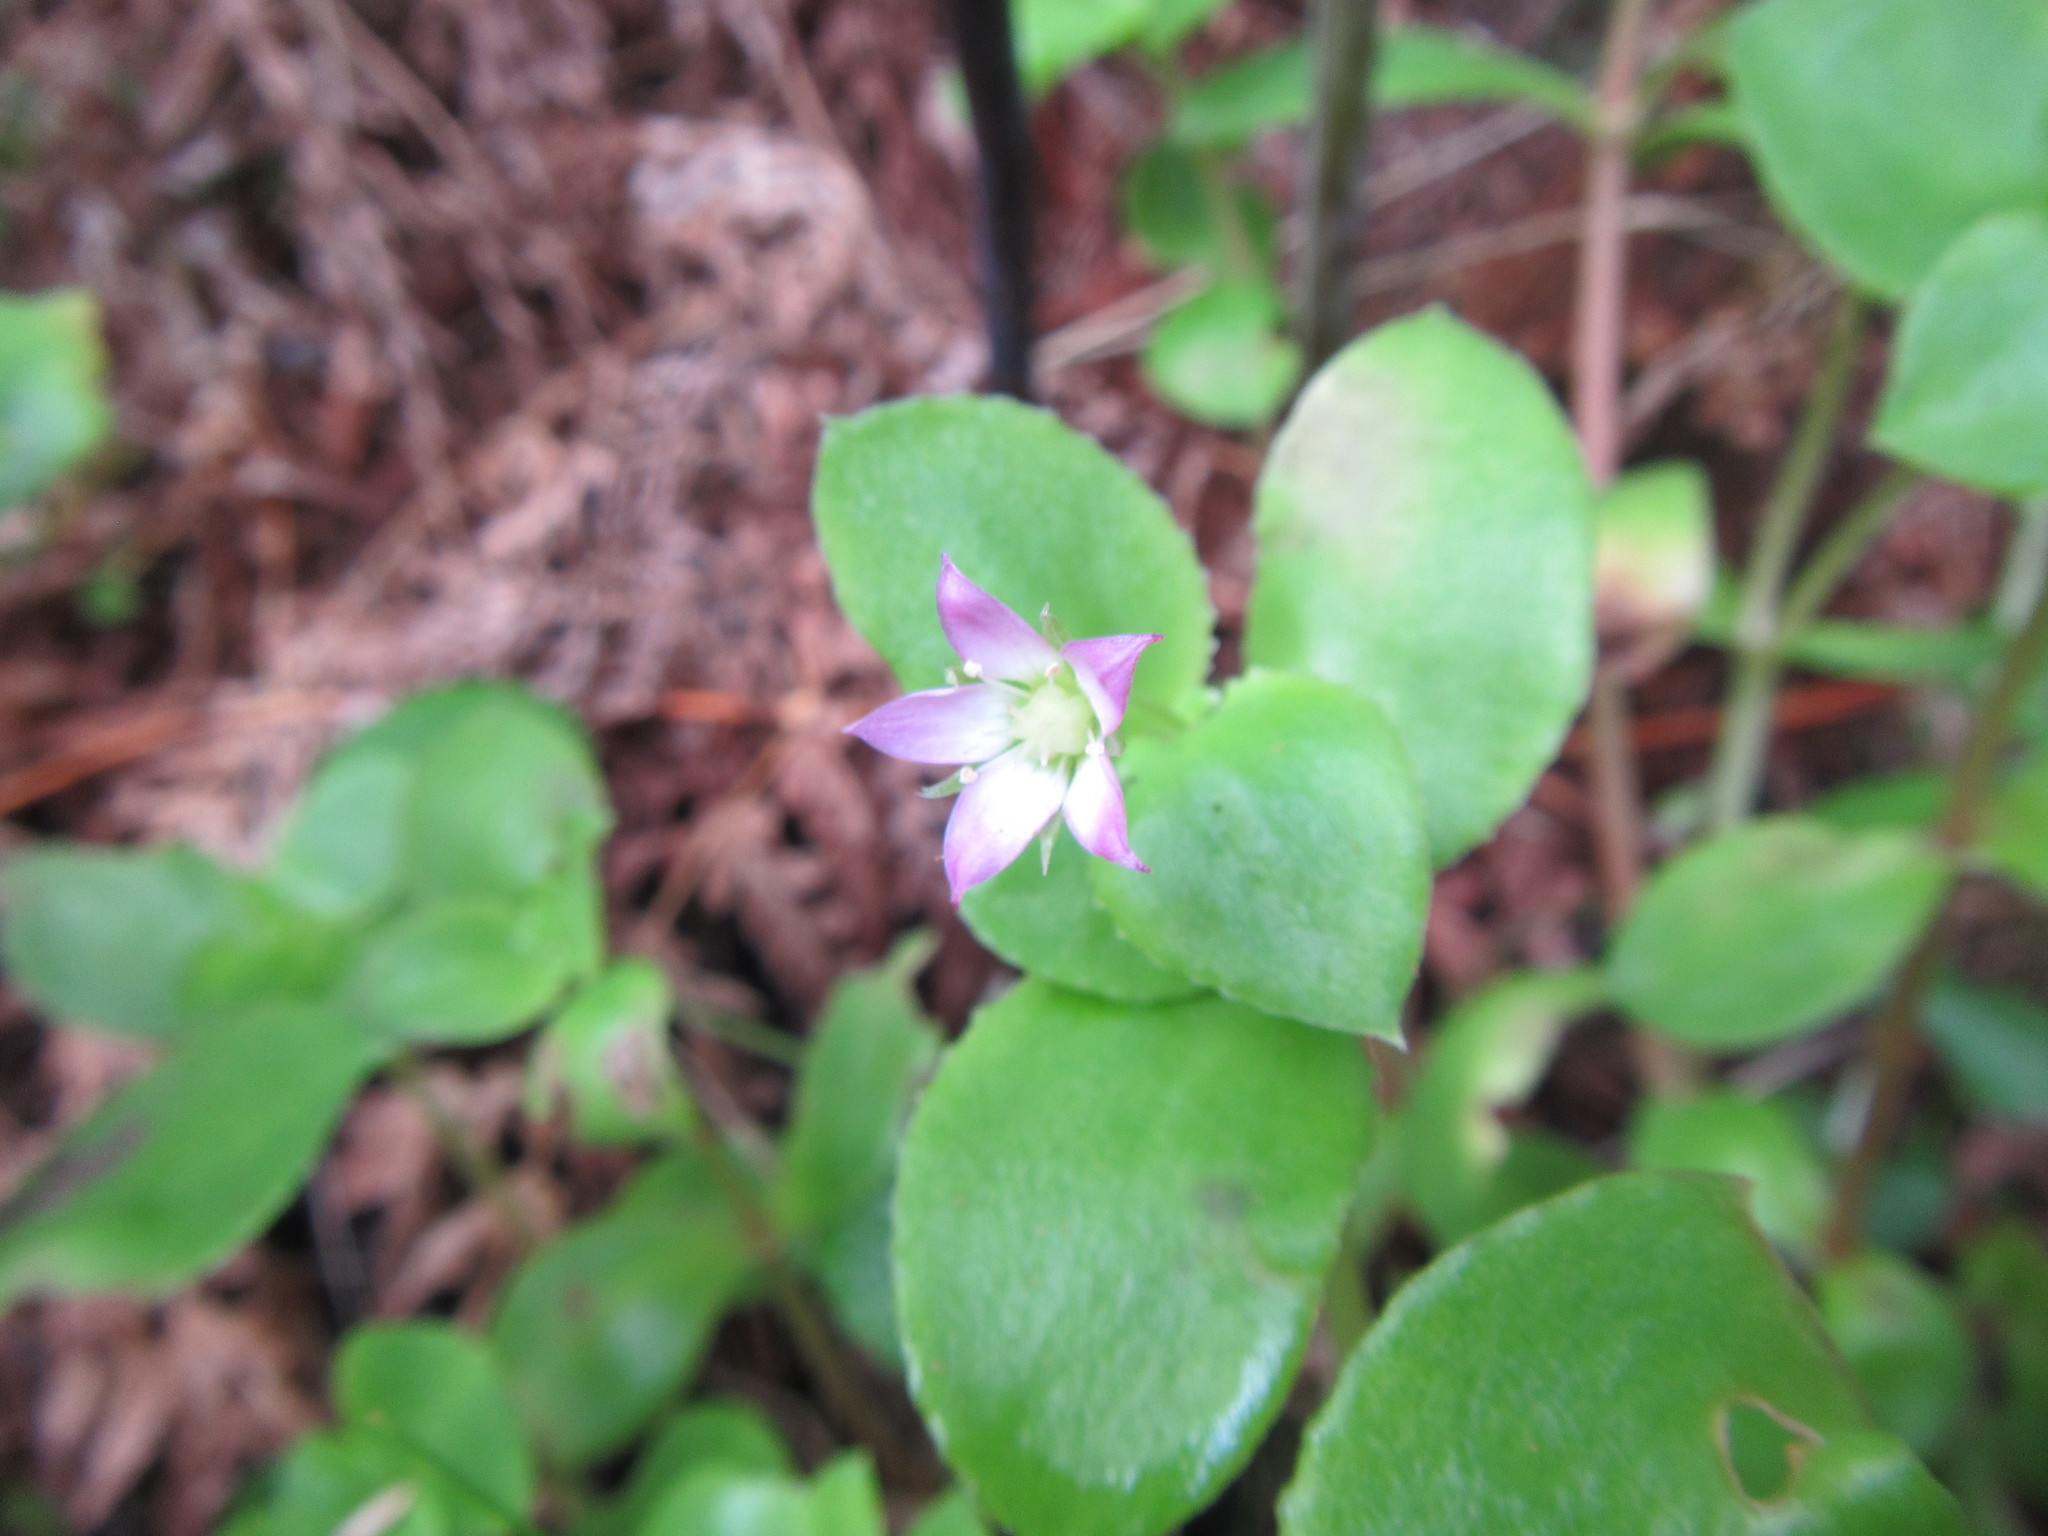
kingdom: Plantae
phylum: Tracheophyta
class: Magnoliopsida
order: Saxifragales
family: Crassulaceae
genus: Crassula
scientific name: Crassula pellucida
